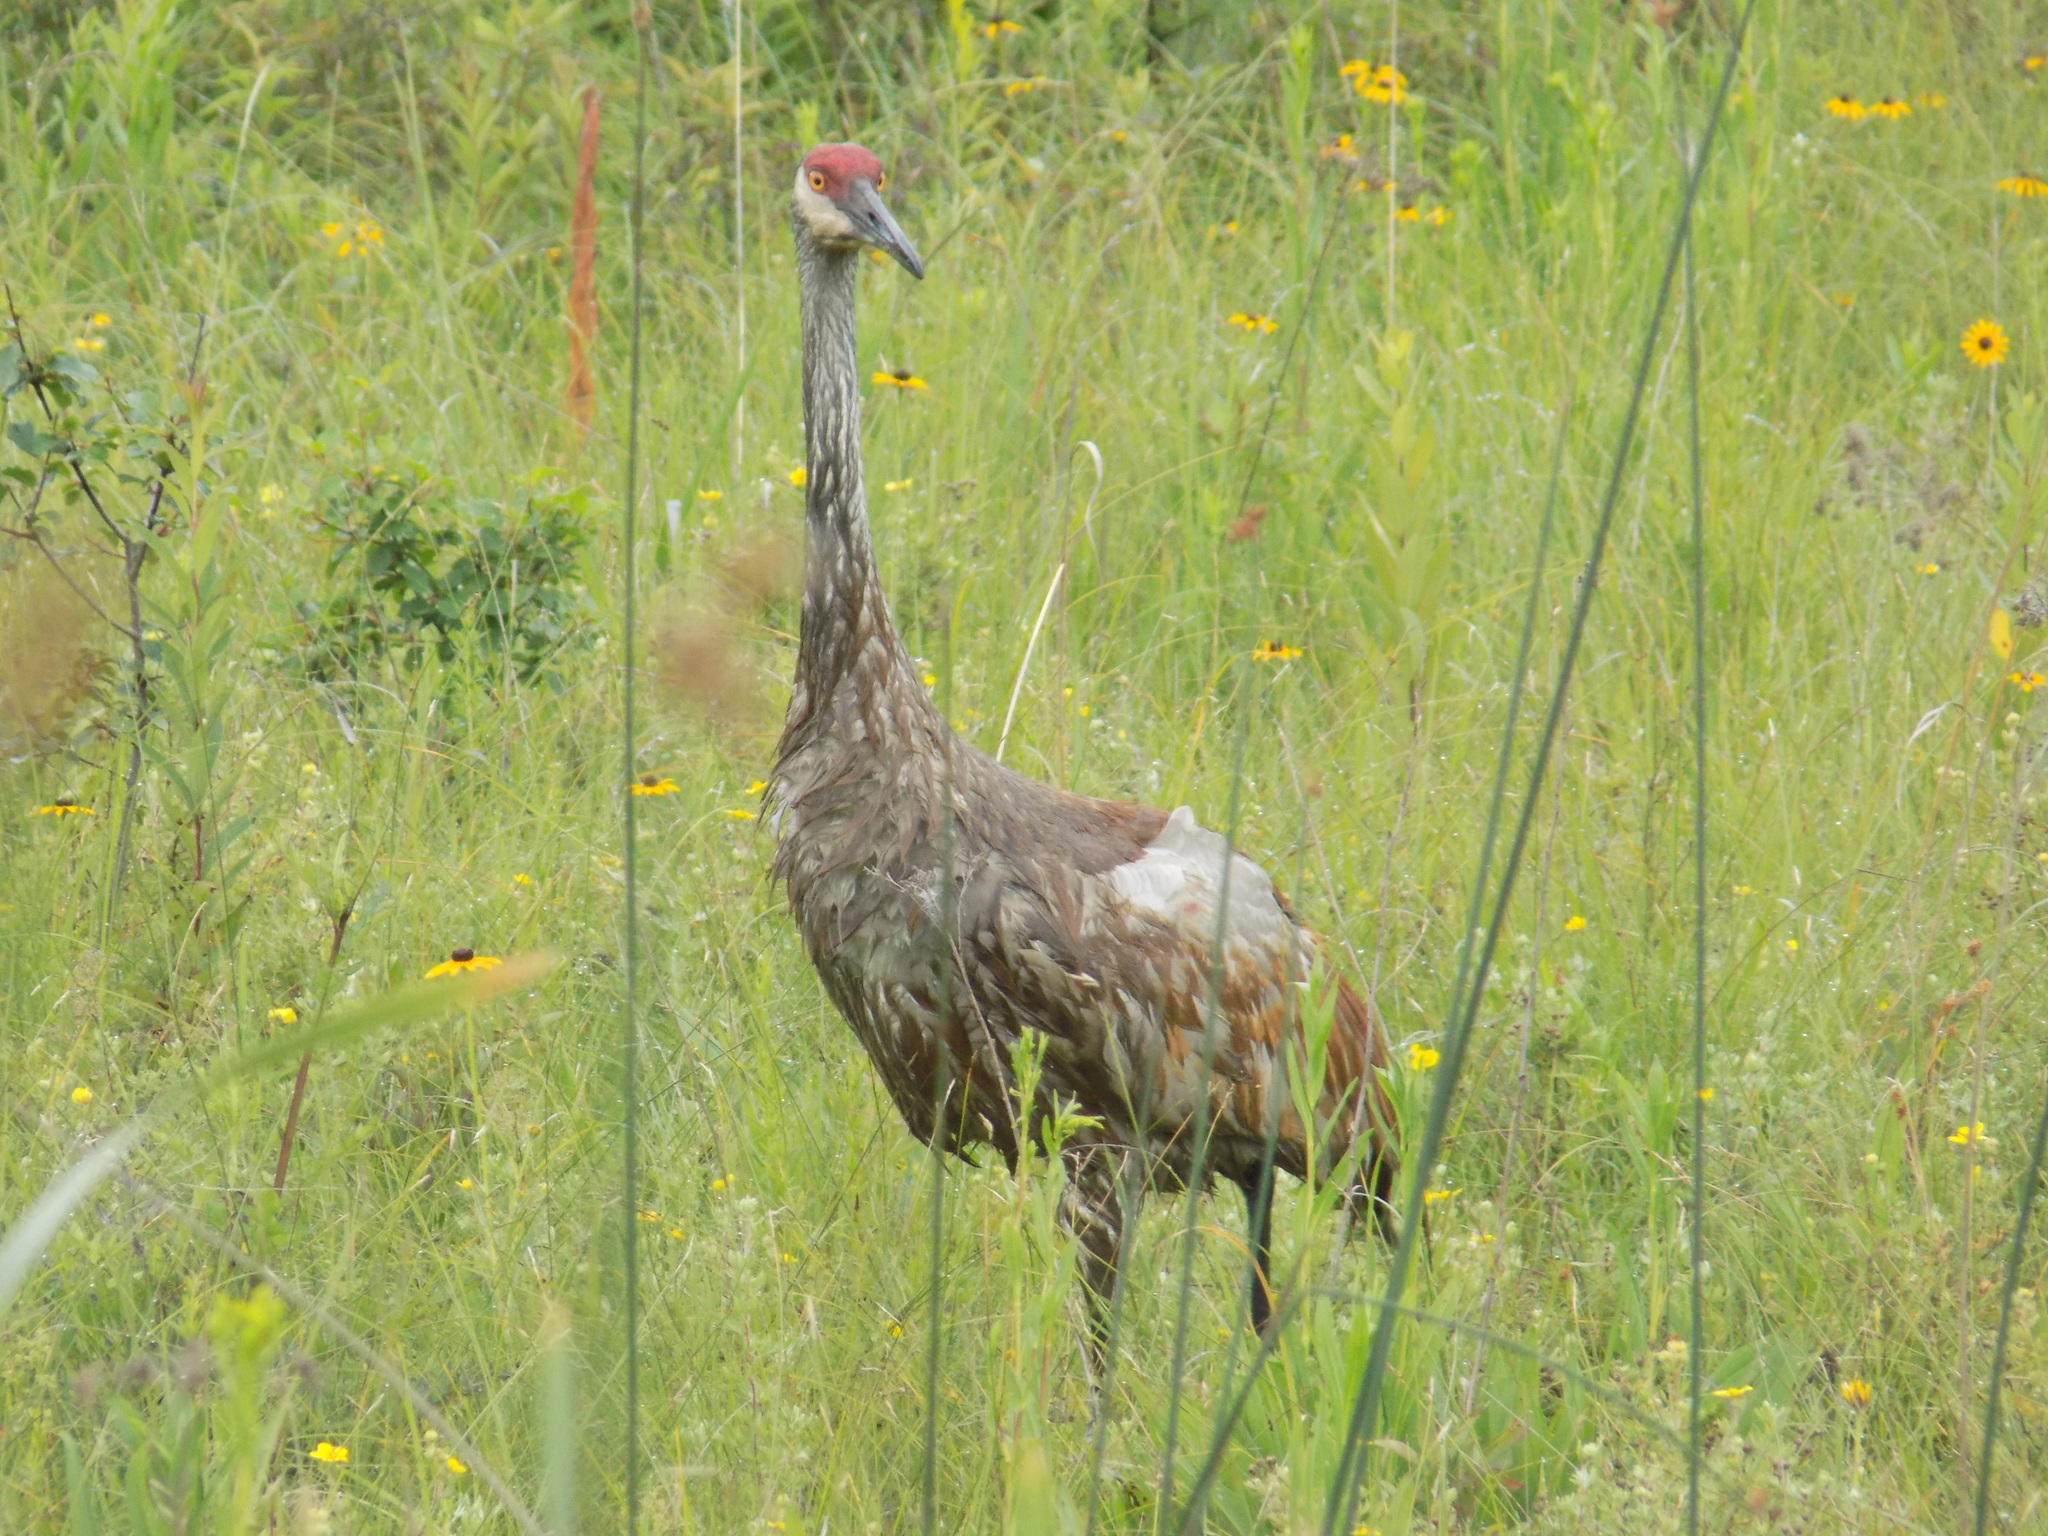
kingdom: Animalia
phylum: Chordata
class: Aves
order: Gruiformes
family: Gruidae
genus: Grus
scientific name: Grus canadensis
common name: Sandhill crane
